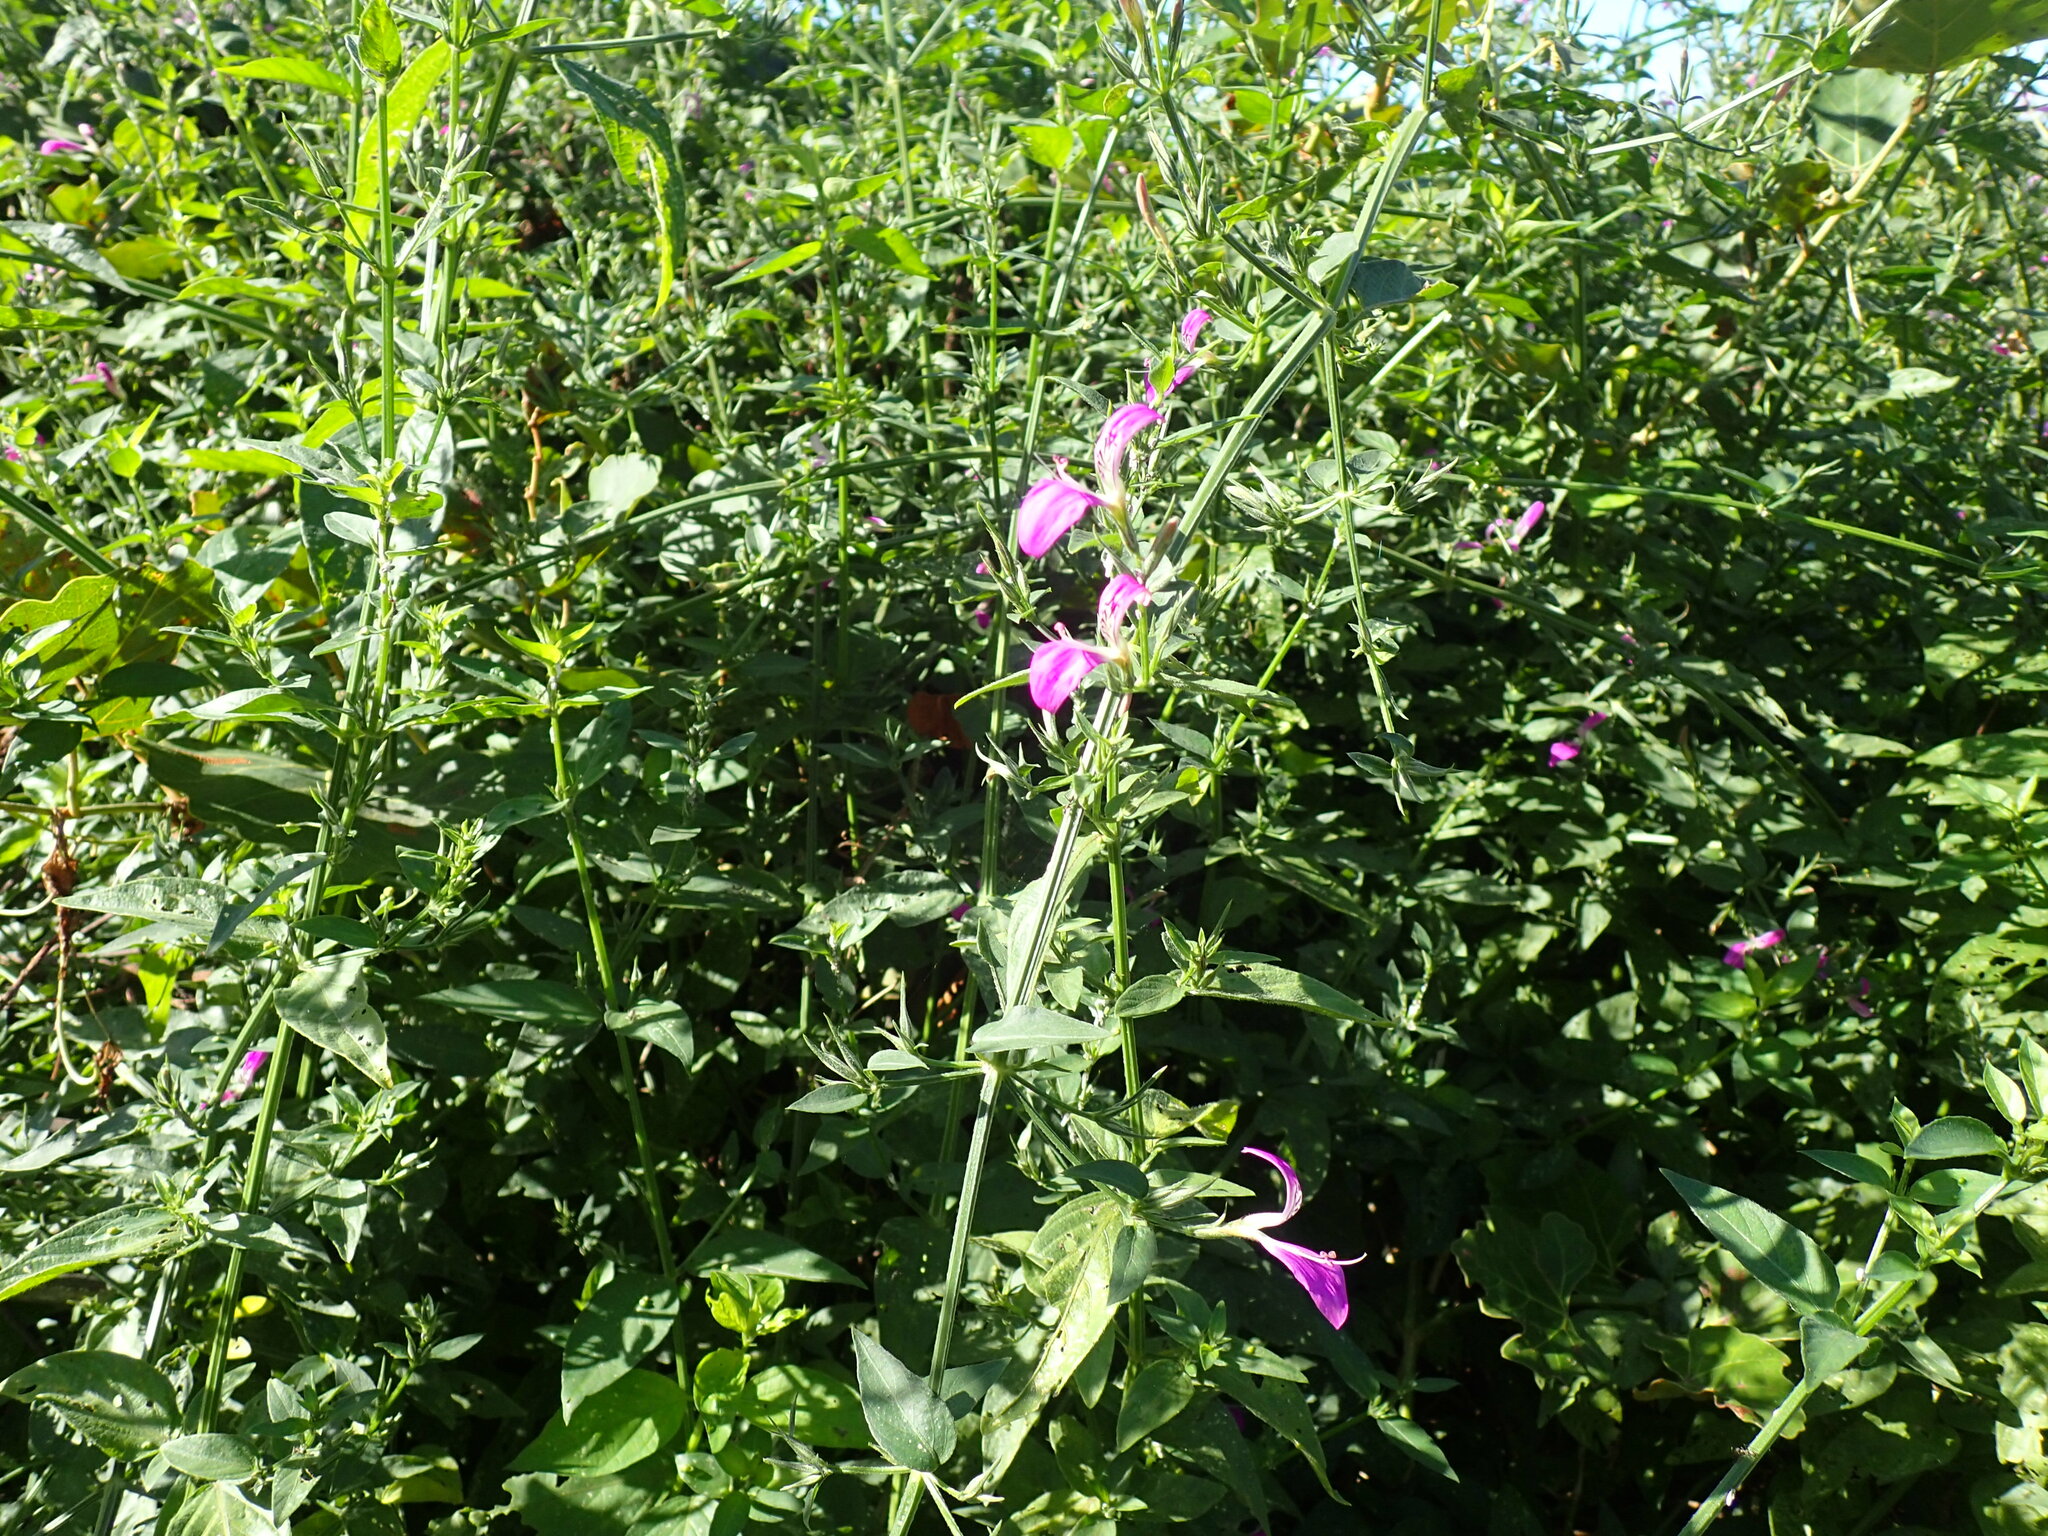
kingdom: Plantae
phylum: Tracheophyta
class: Magnoliopsida
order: Lamiales
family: Acanthaceae
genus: Dicliptera
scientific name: Dicliptera cernua
